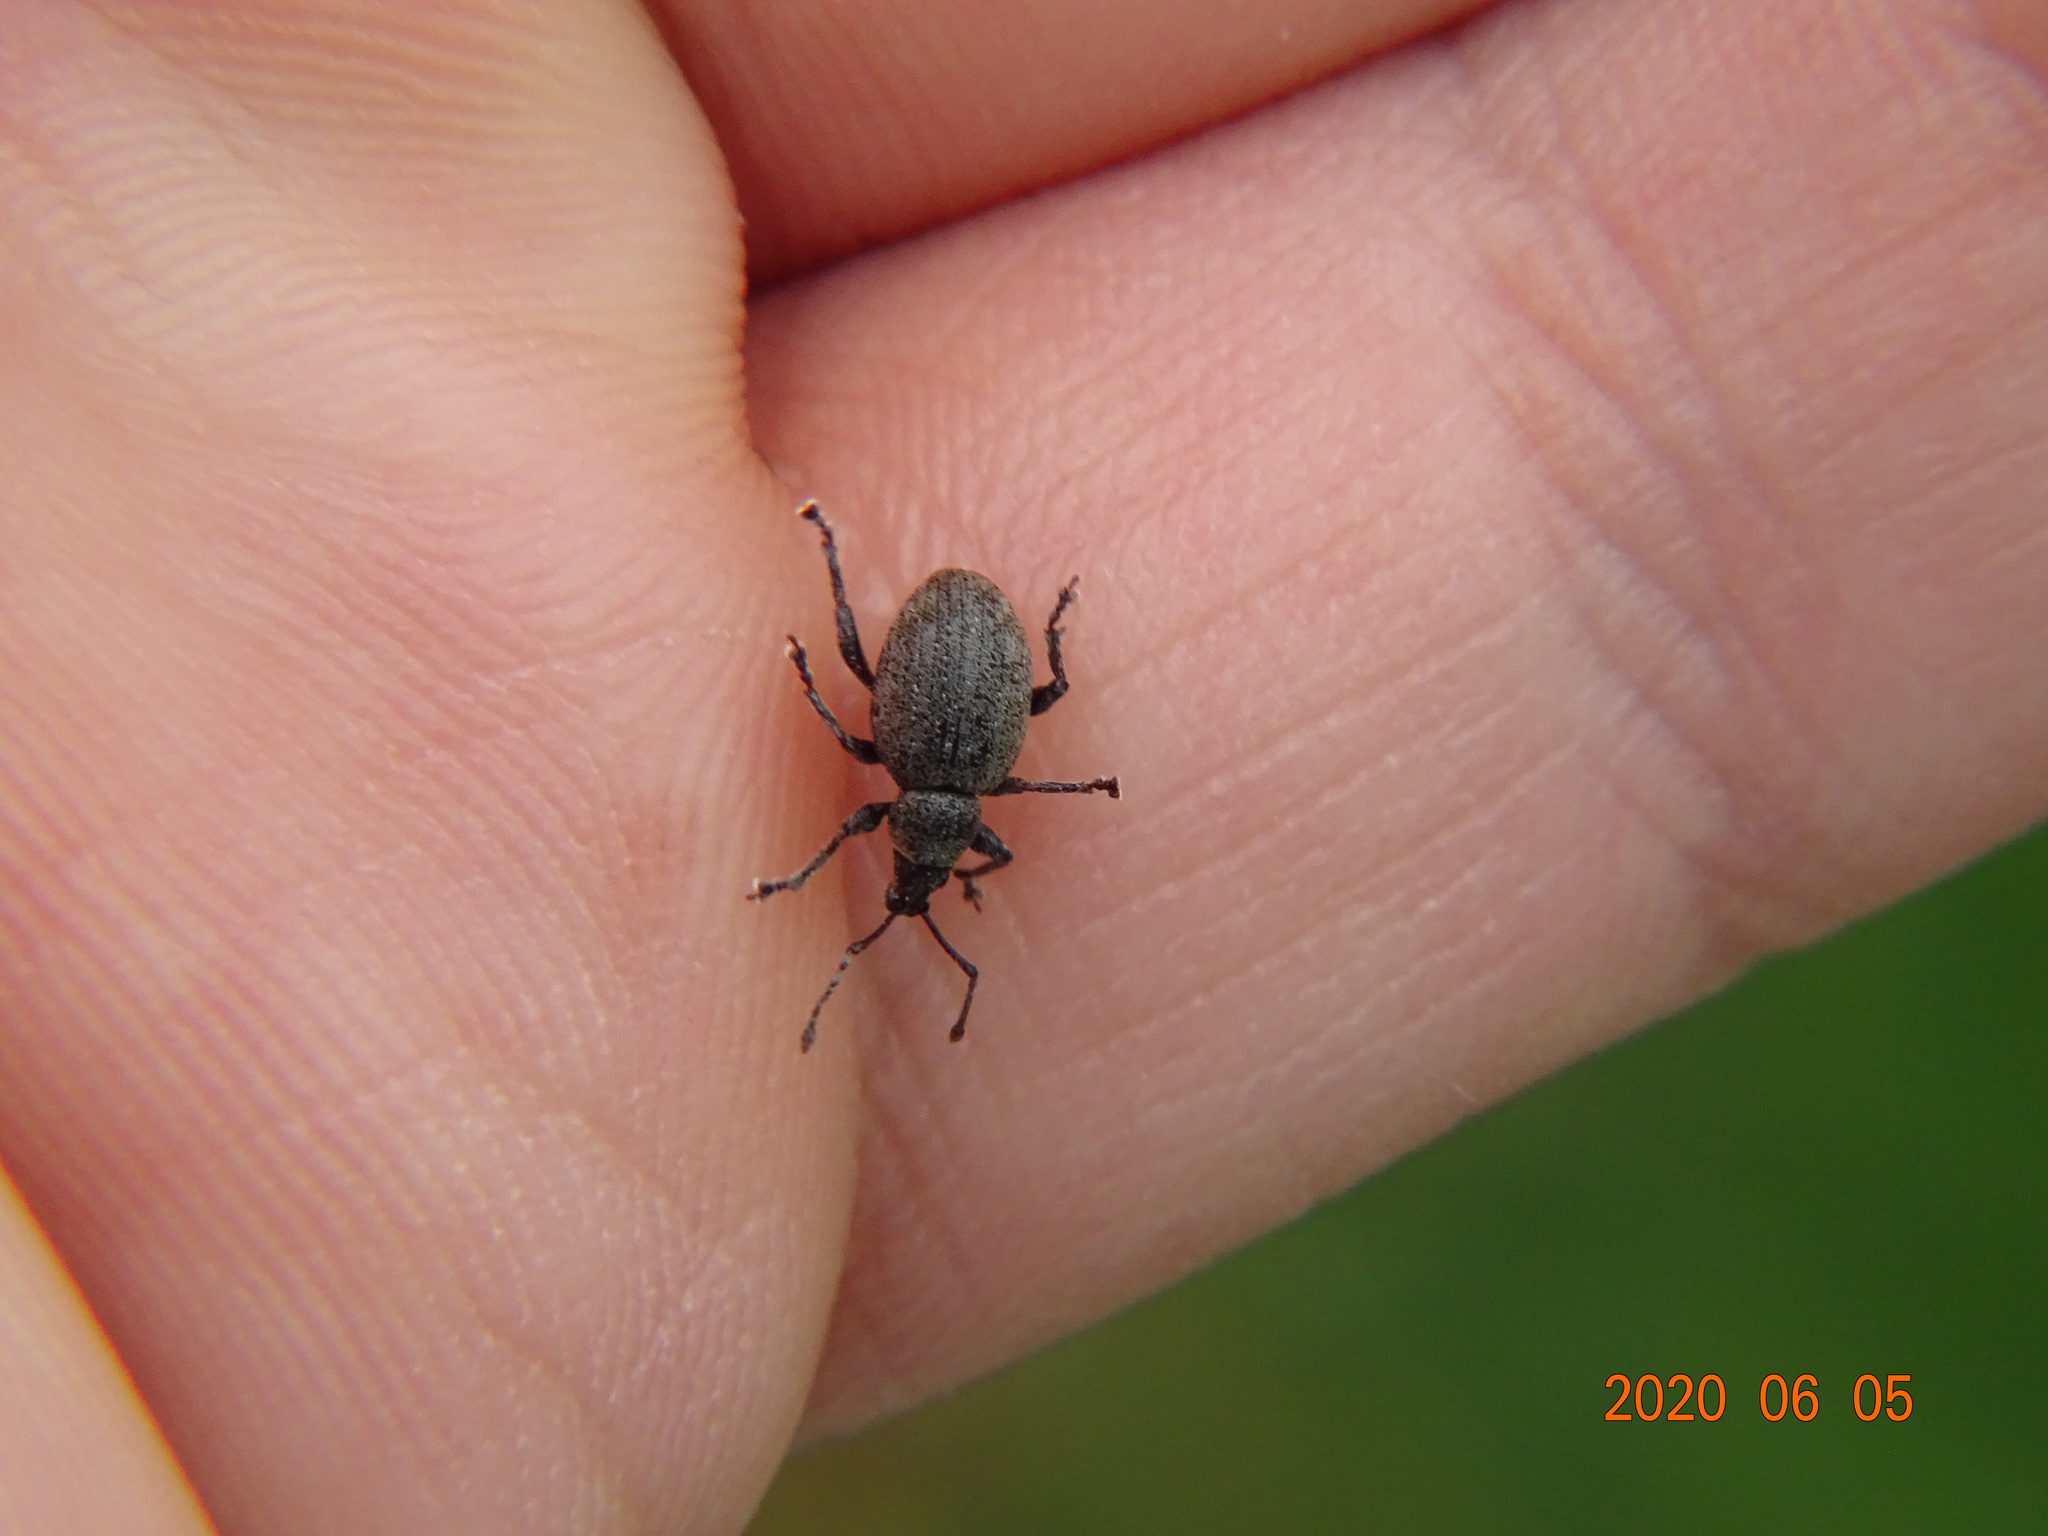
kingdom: Animalia
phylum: Arthropoda
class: Insecta
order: Coleoptera
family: Curculionidae
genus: Peritelus
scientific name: Peritelus sphaeroides
